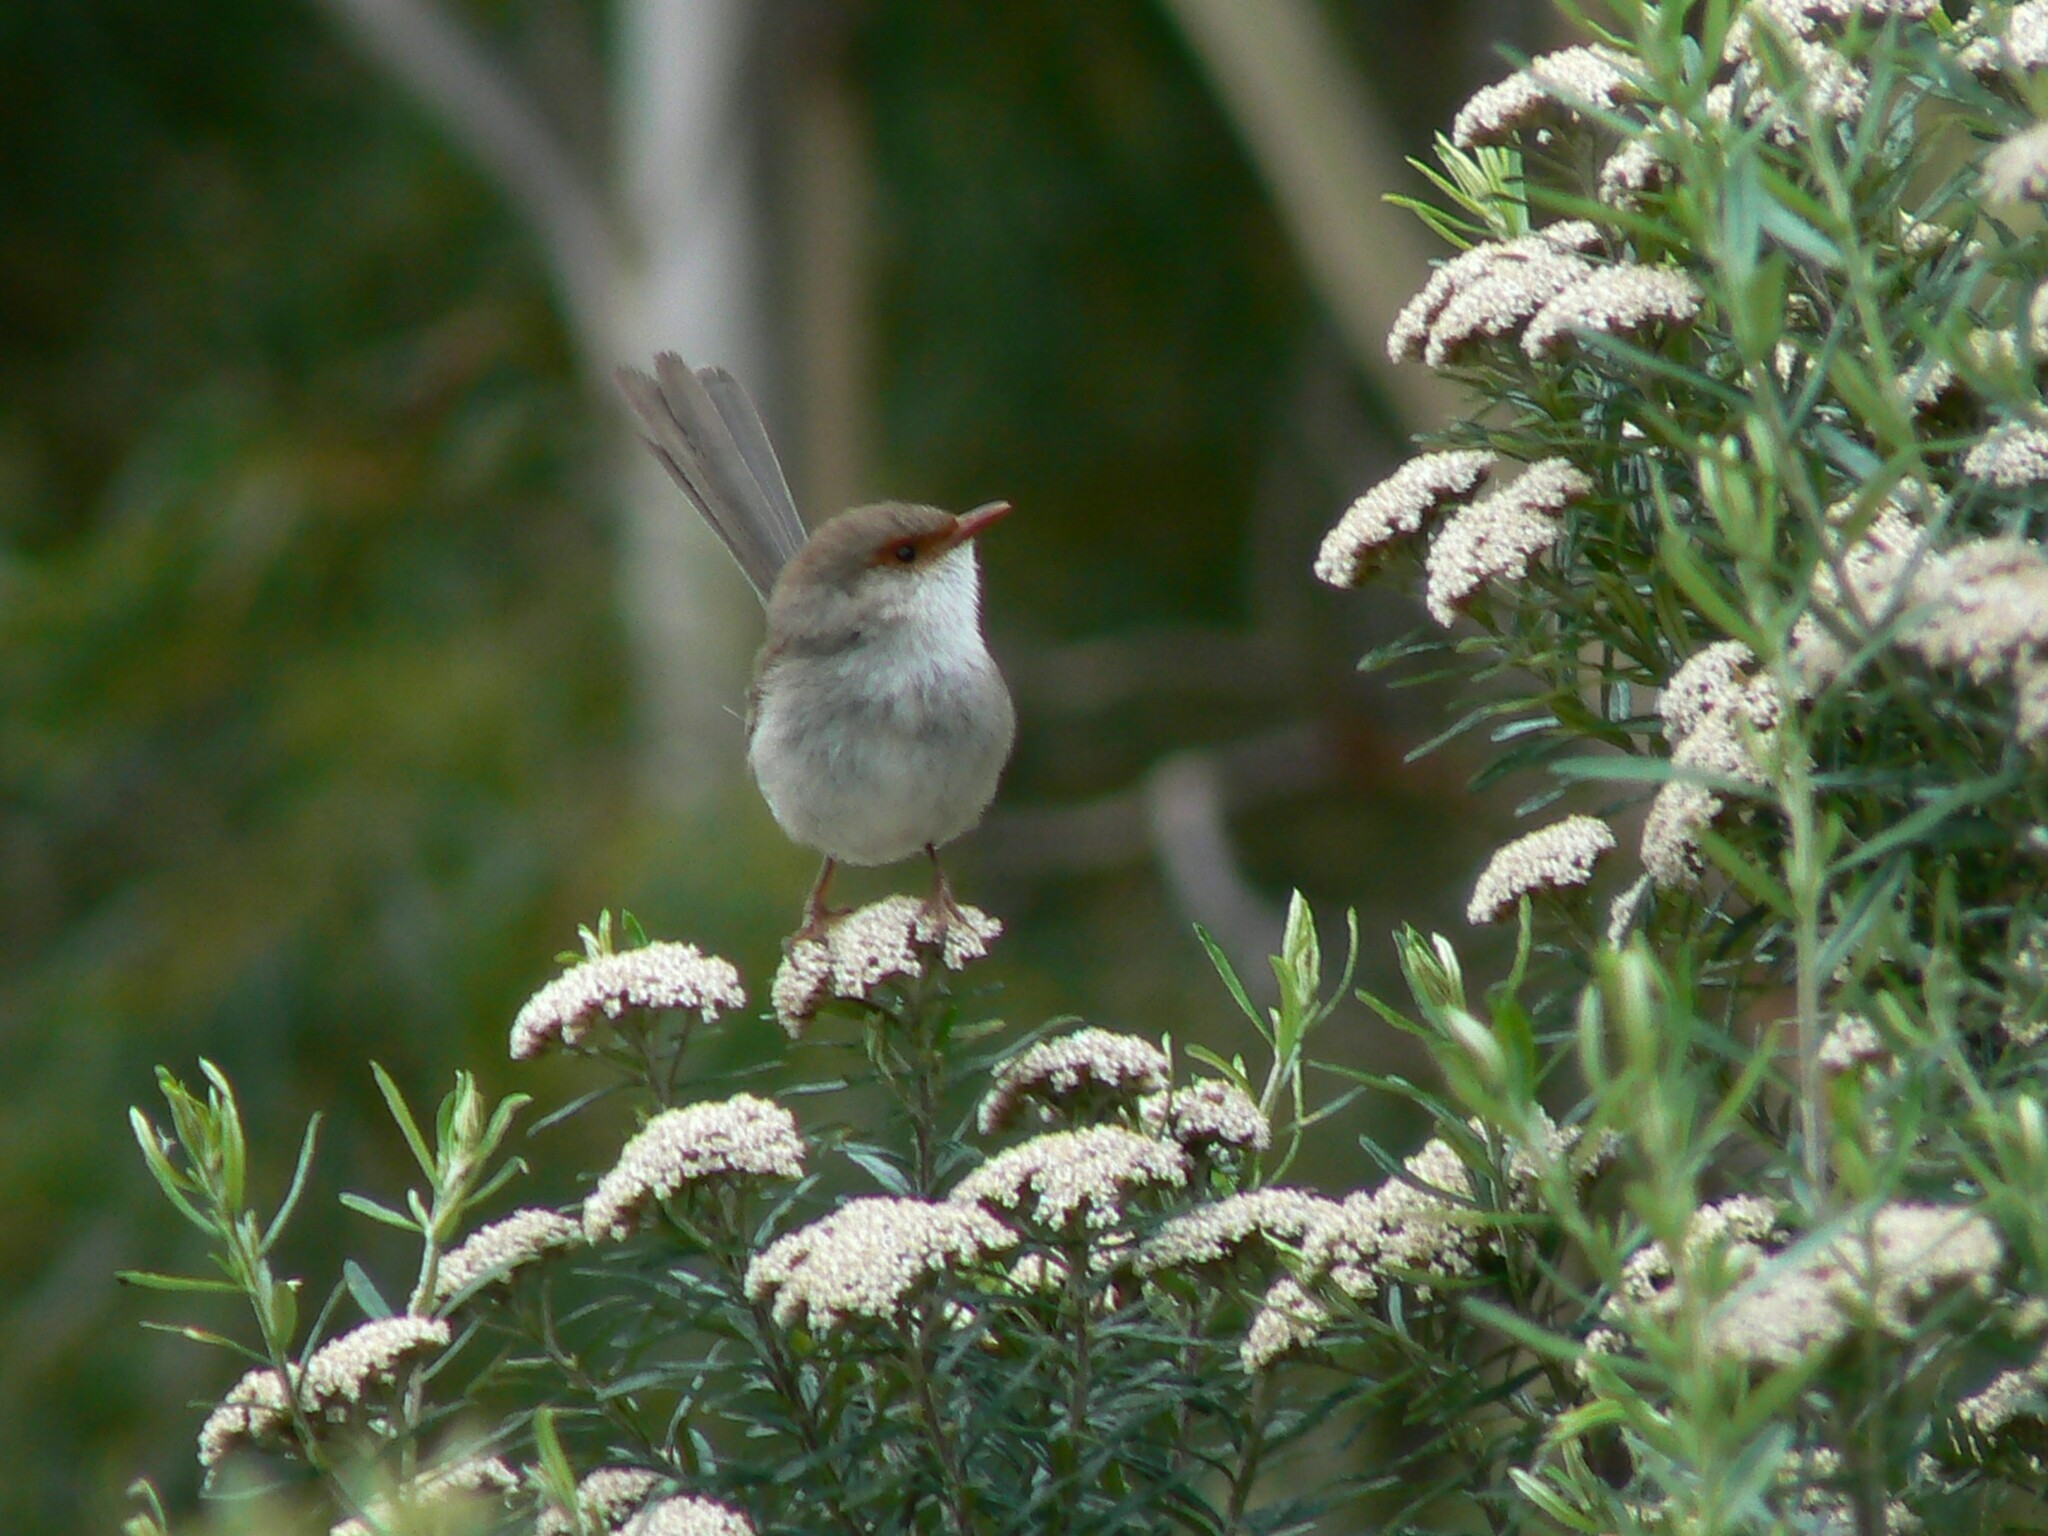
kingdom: Animalia
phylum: Chordata
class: Aves
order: Passeriformes
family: Maluridae
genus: Malurus
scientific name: Malurus cyaneus
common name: Superb fairywren
